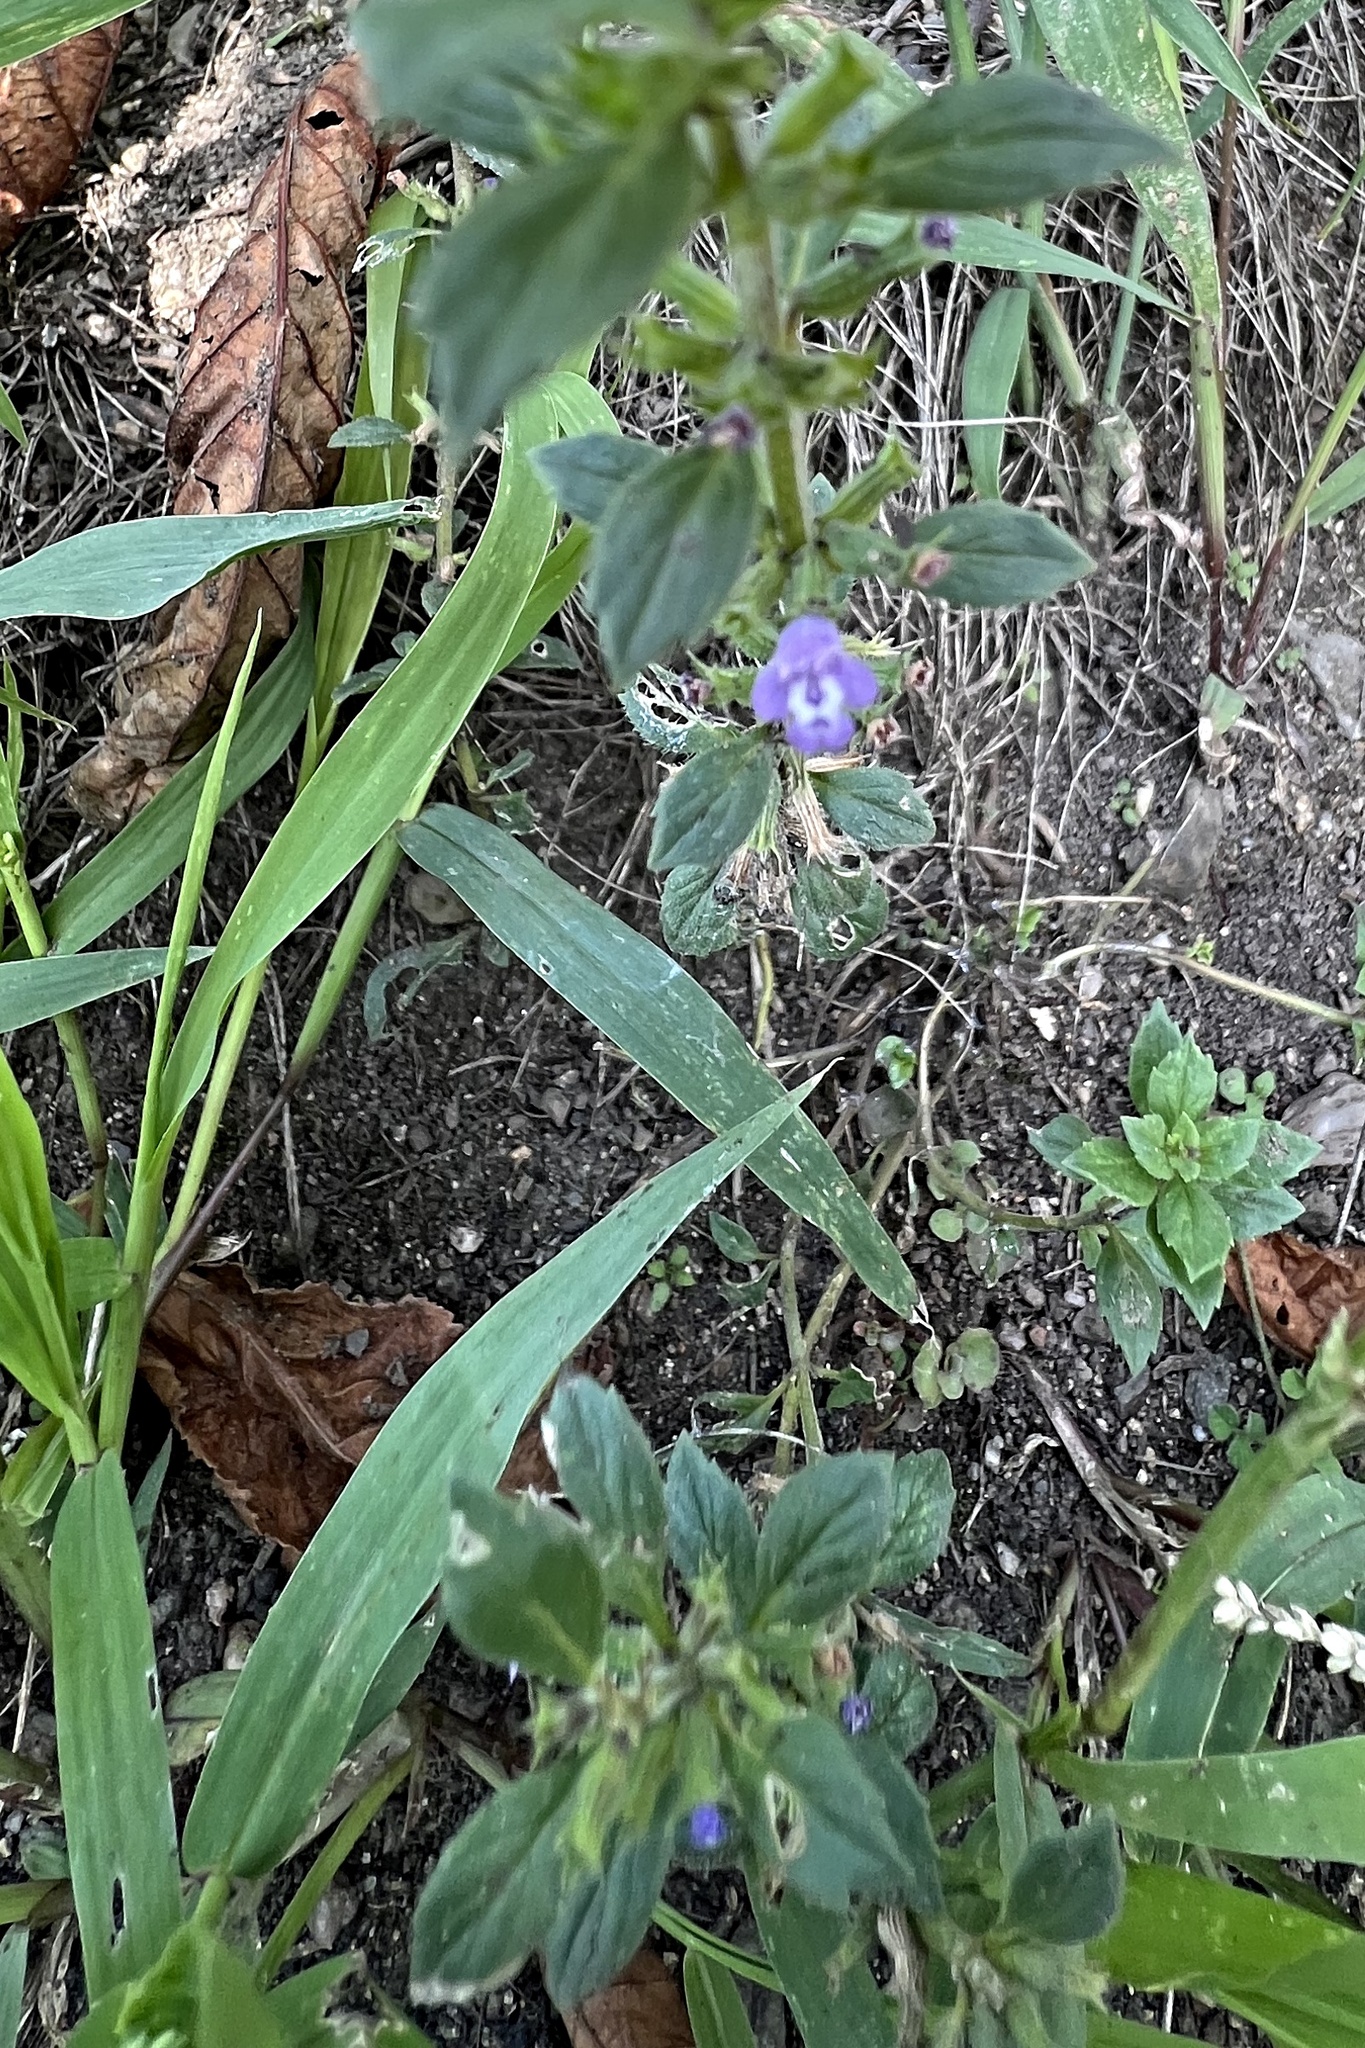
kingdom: Plantae
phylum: Tracheophyta
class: Magnoliopsida
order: Lamiales
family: Lamiaceae
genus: Clinopodium
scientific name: Clinopodium acinos
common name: Basil thyme
